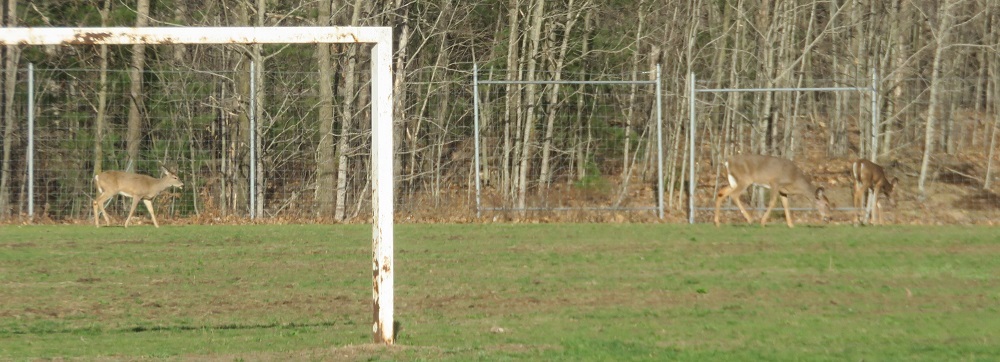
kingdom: Animalia
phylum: Chordata
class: Mammalia
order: Artiodactyla
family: Cervidae
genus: Odocoileus
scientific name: Odocoileus virginianus
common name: White-tailed deer
